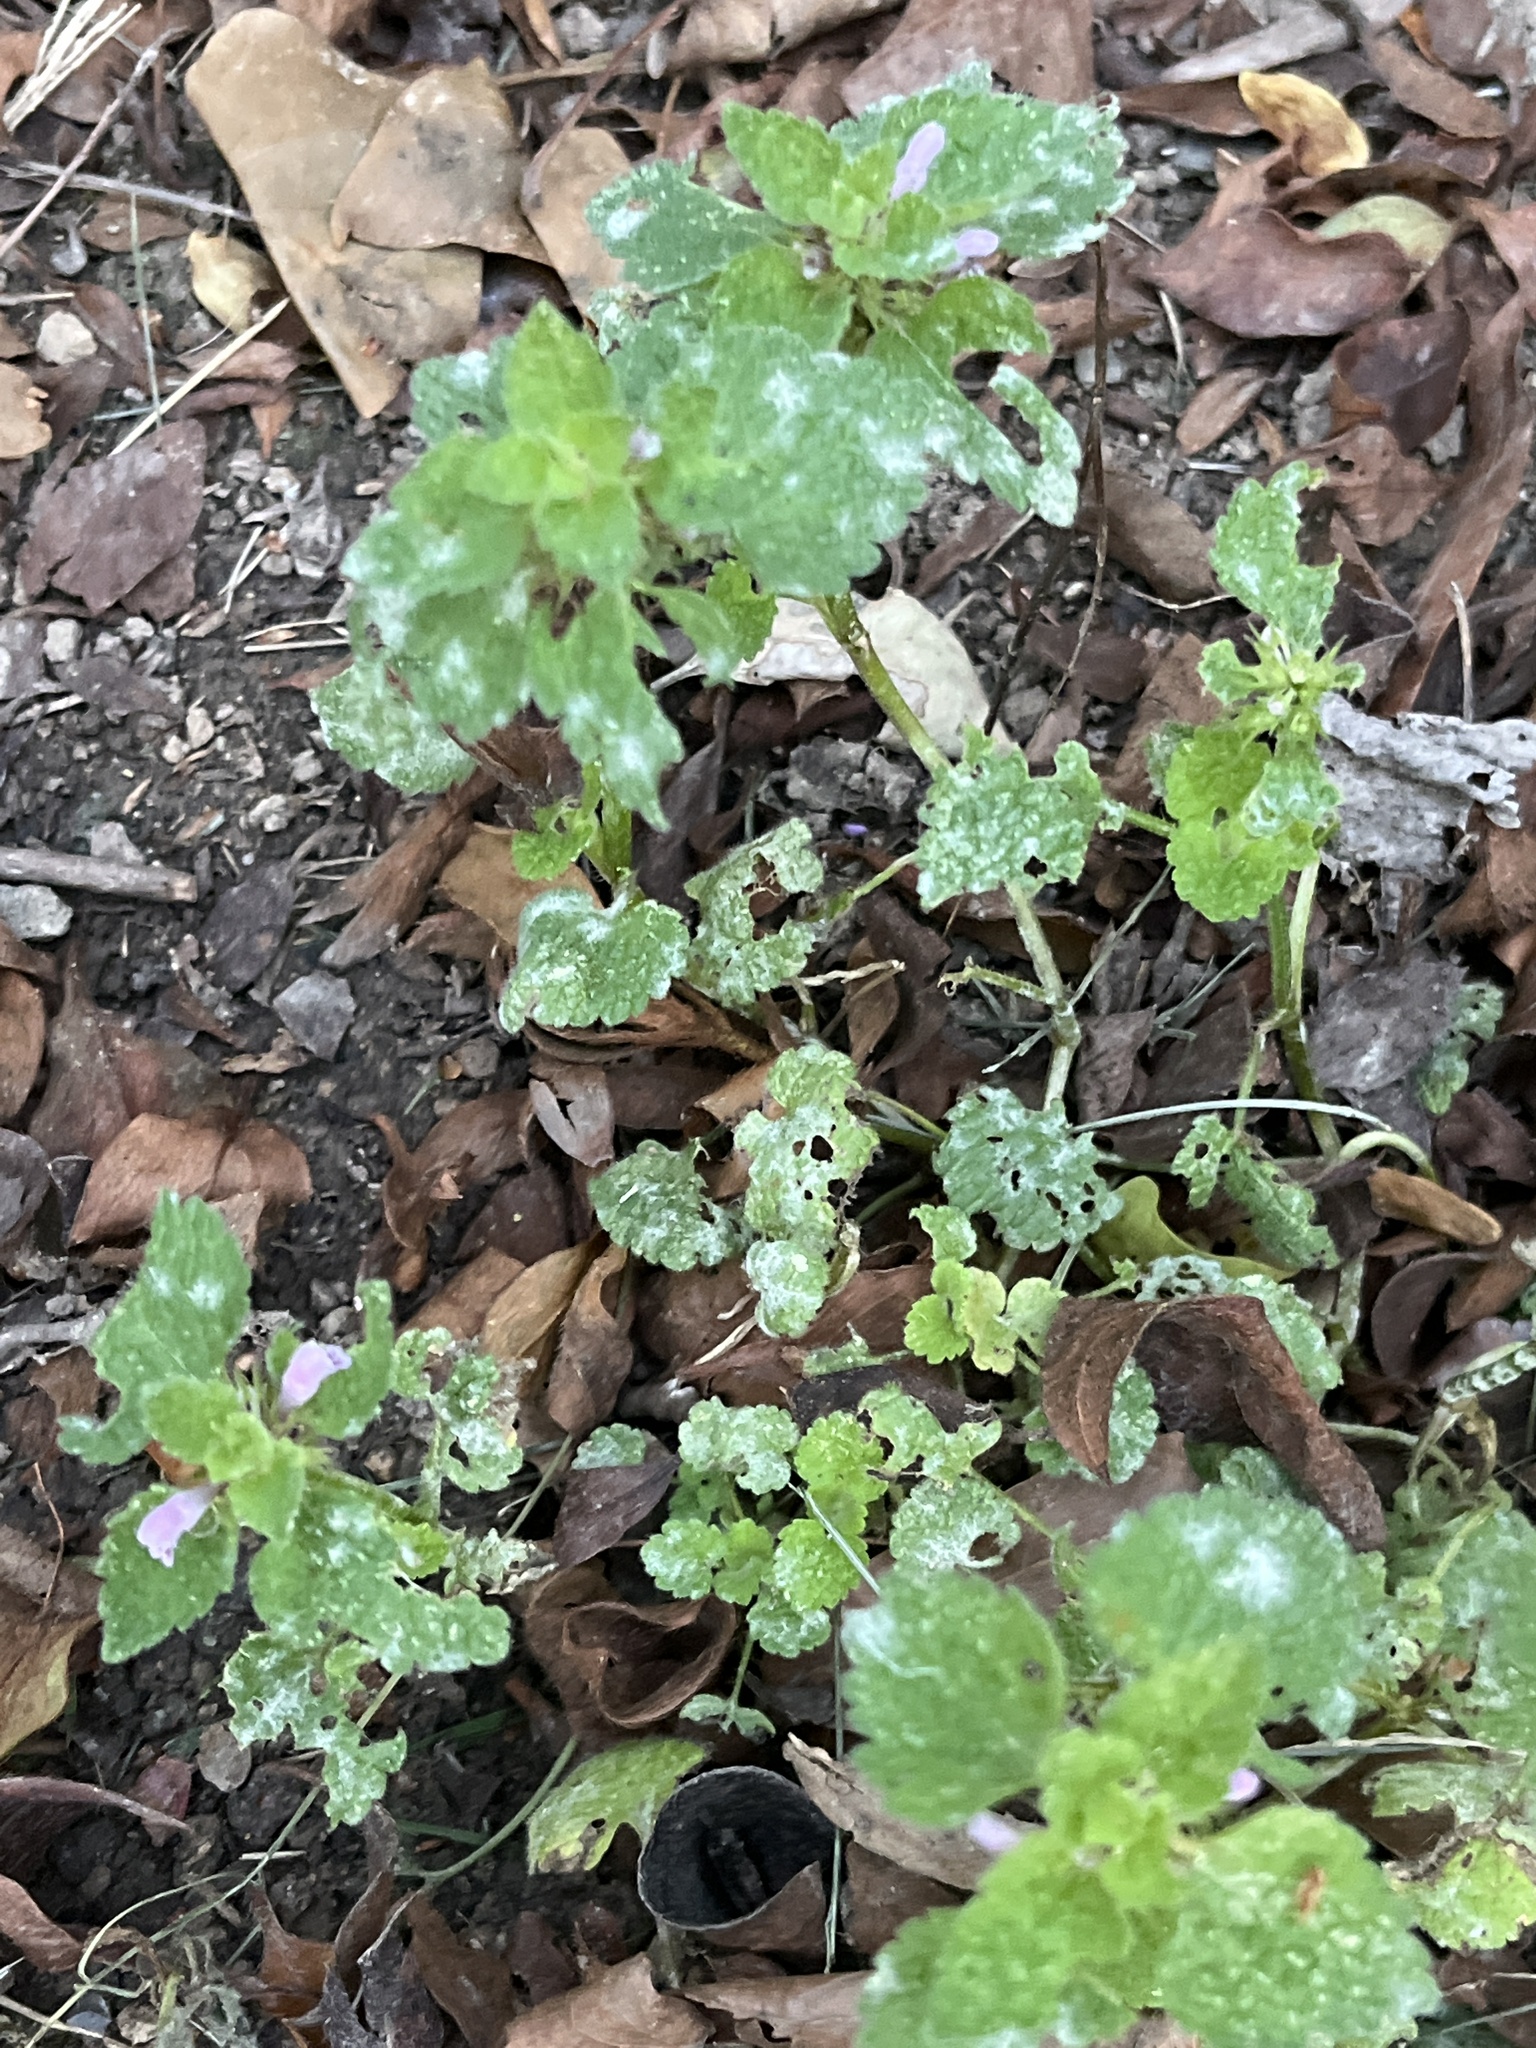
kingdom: Plantae
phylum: Tracheophyta
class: Magnoliopsida
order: Lamiales
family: Lamiaceae
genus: Lamium
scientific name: Lamium purpureum
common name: Red dead-nettle
